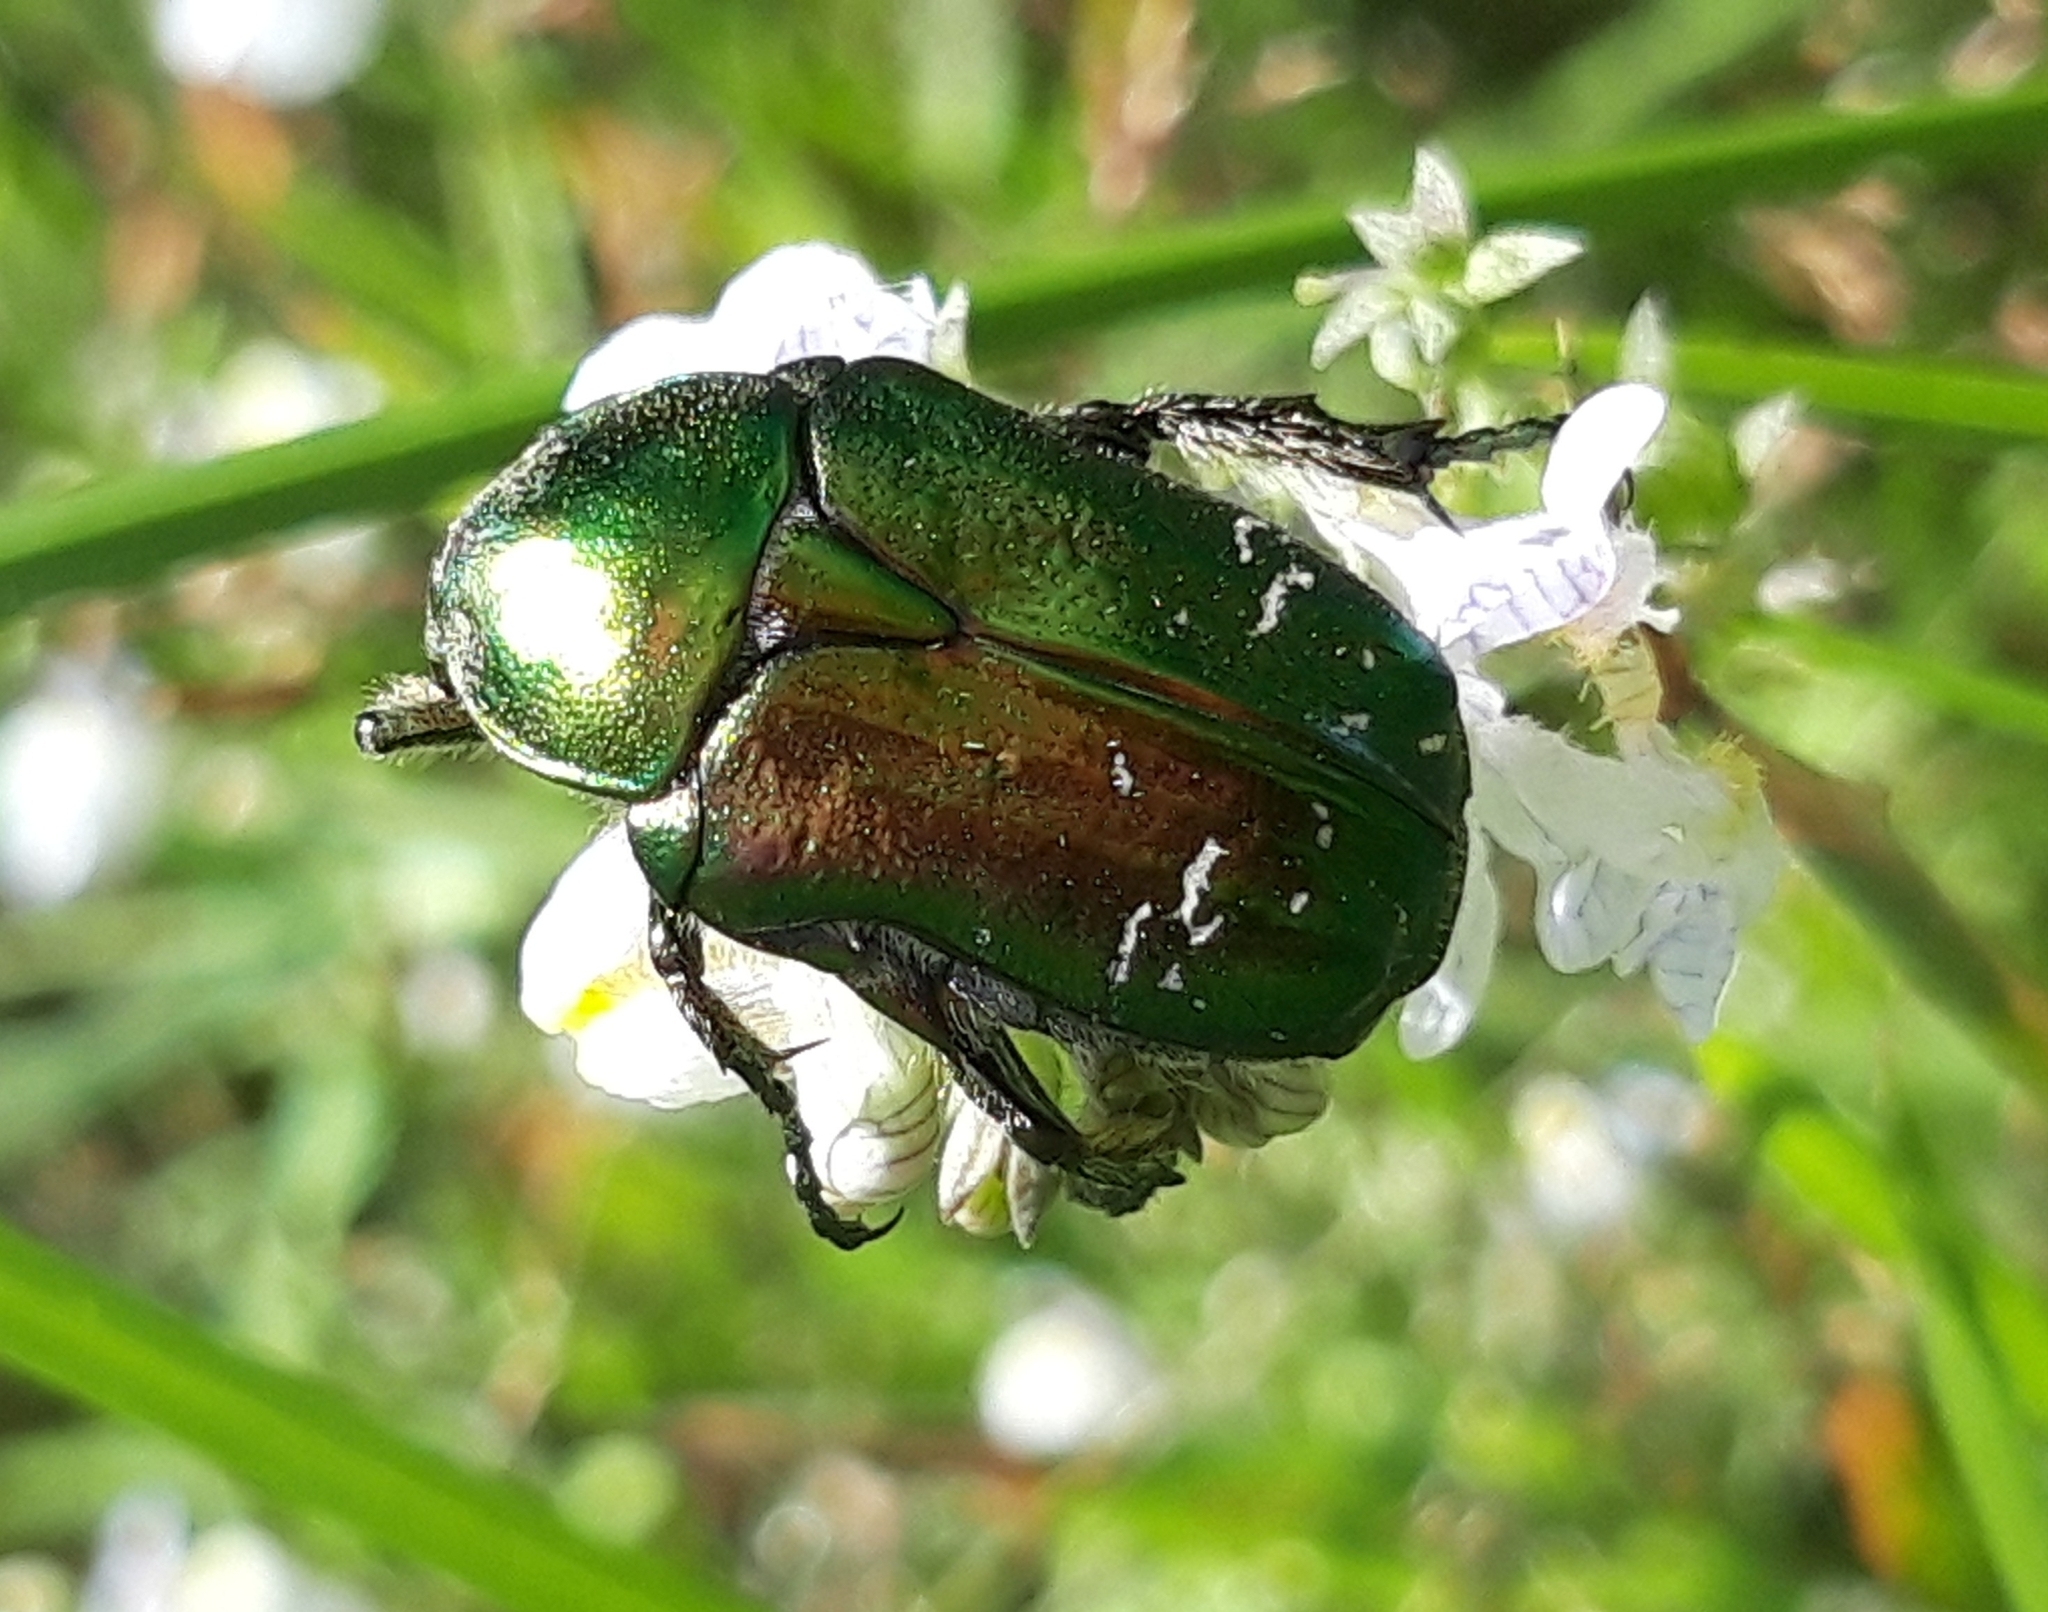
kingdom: Animalia
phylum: Arthropoda
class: Insecta
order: Coleoptera
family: Scarabaeidae
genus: Cetonia
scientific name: Cetonia aurata
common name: Rose chafer
